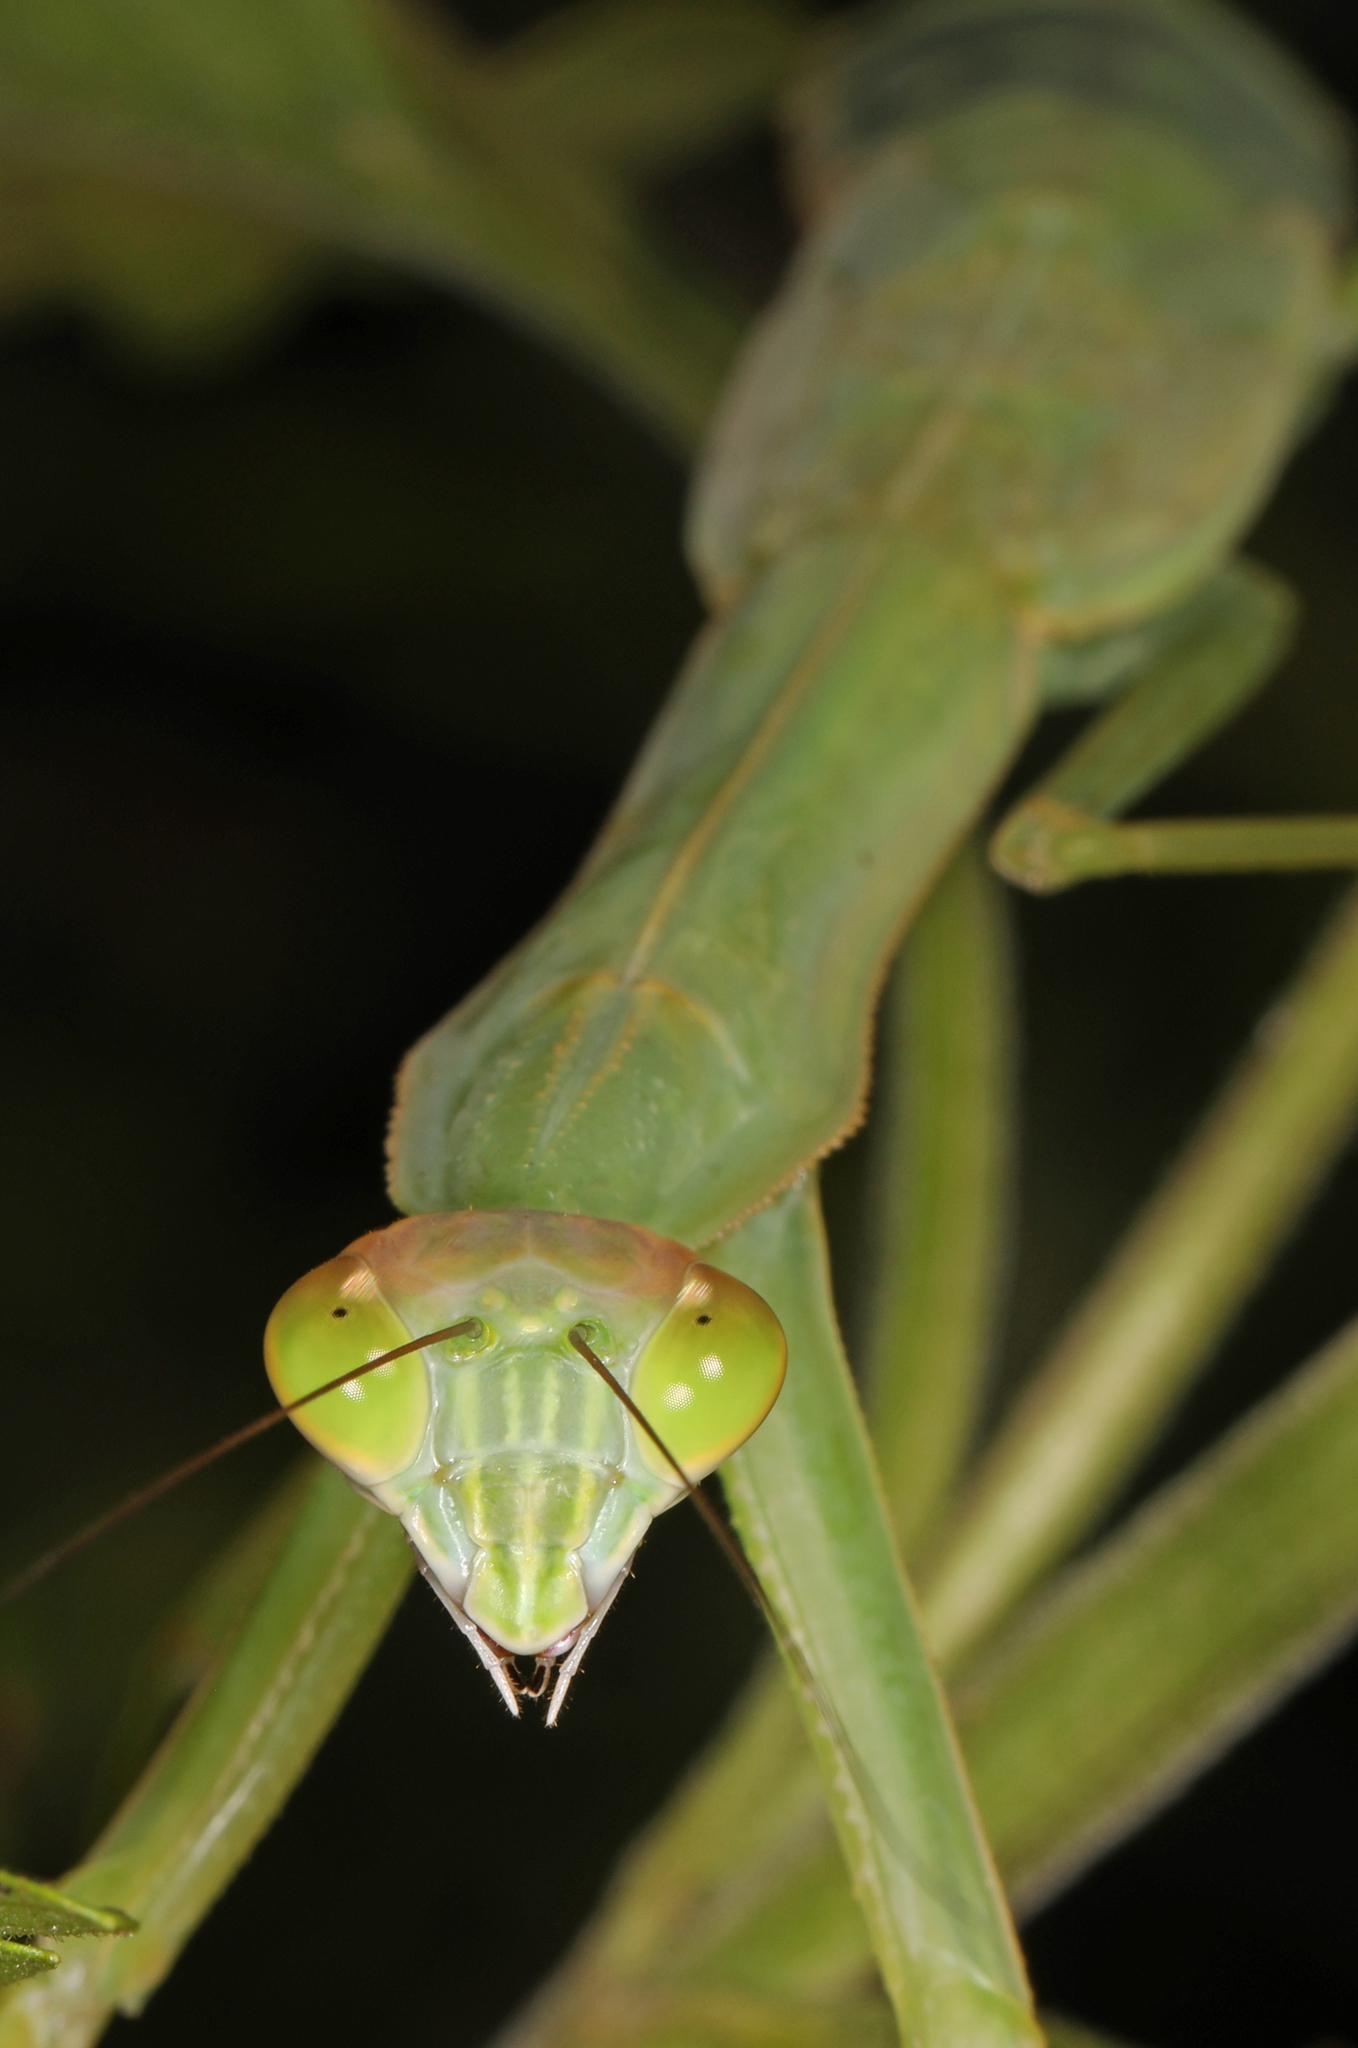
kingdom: Animalia
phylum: Arthropoda
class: Insecta
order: Mantodea
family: Mantidae
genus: Tenodera
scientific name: Tenodera sinensis
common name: Chinese mantis
